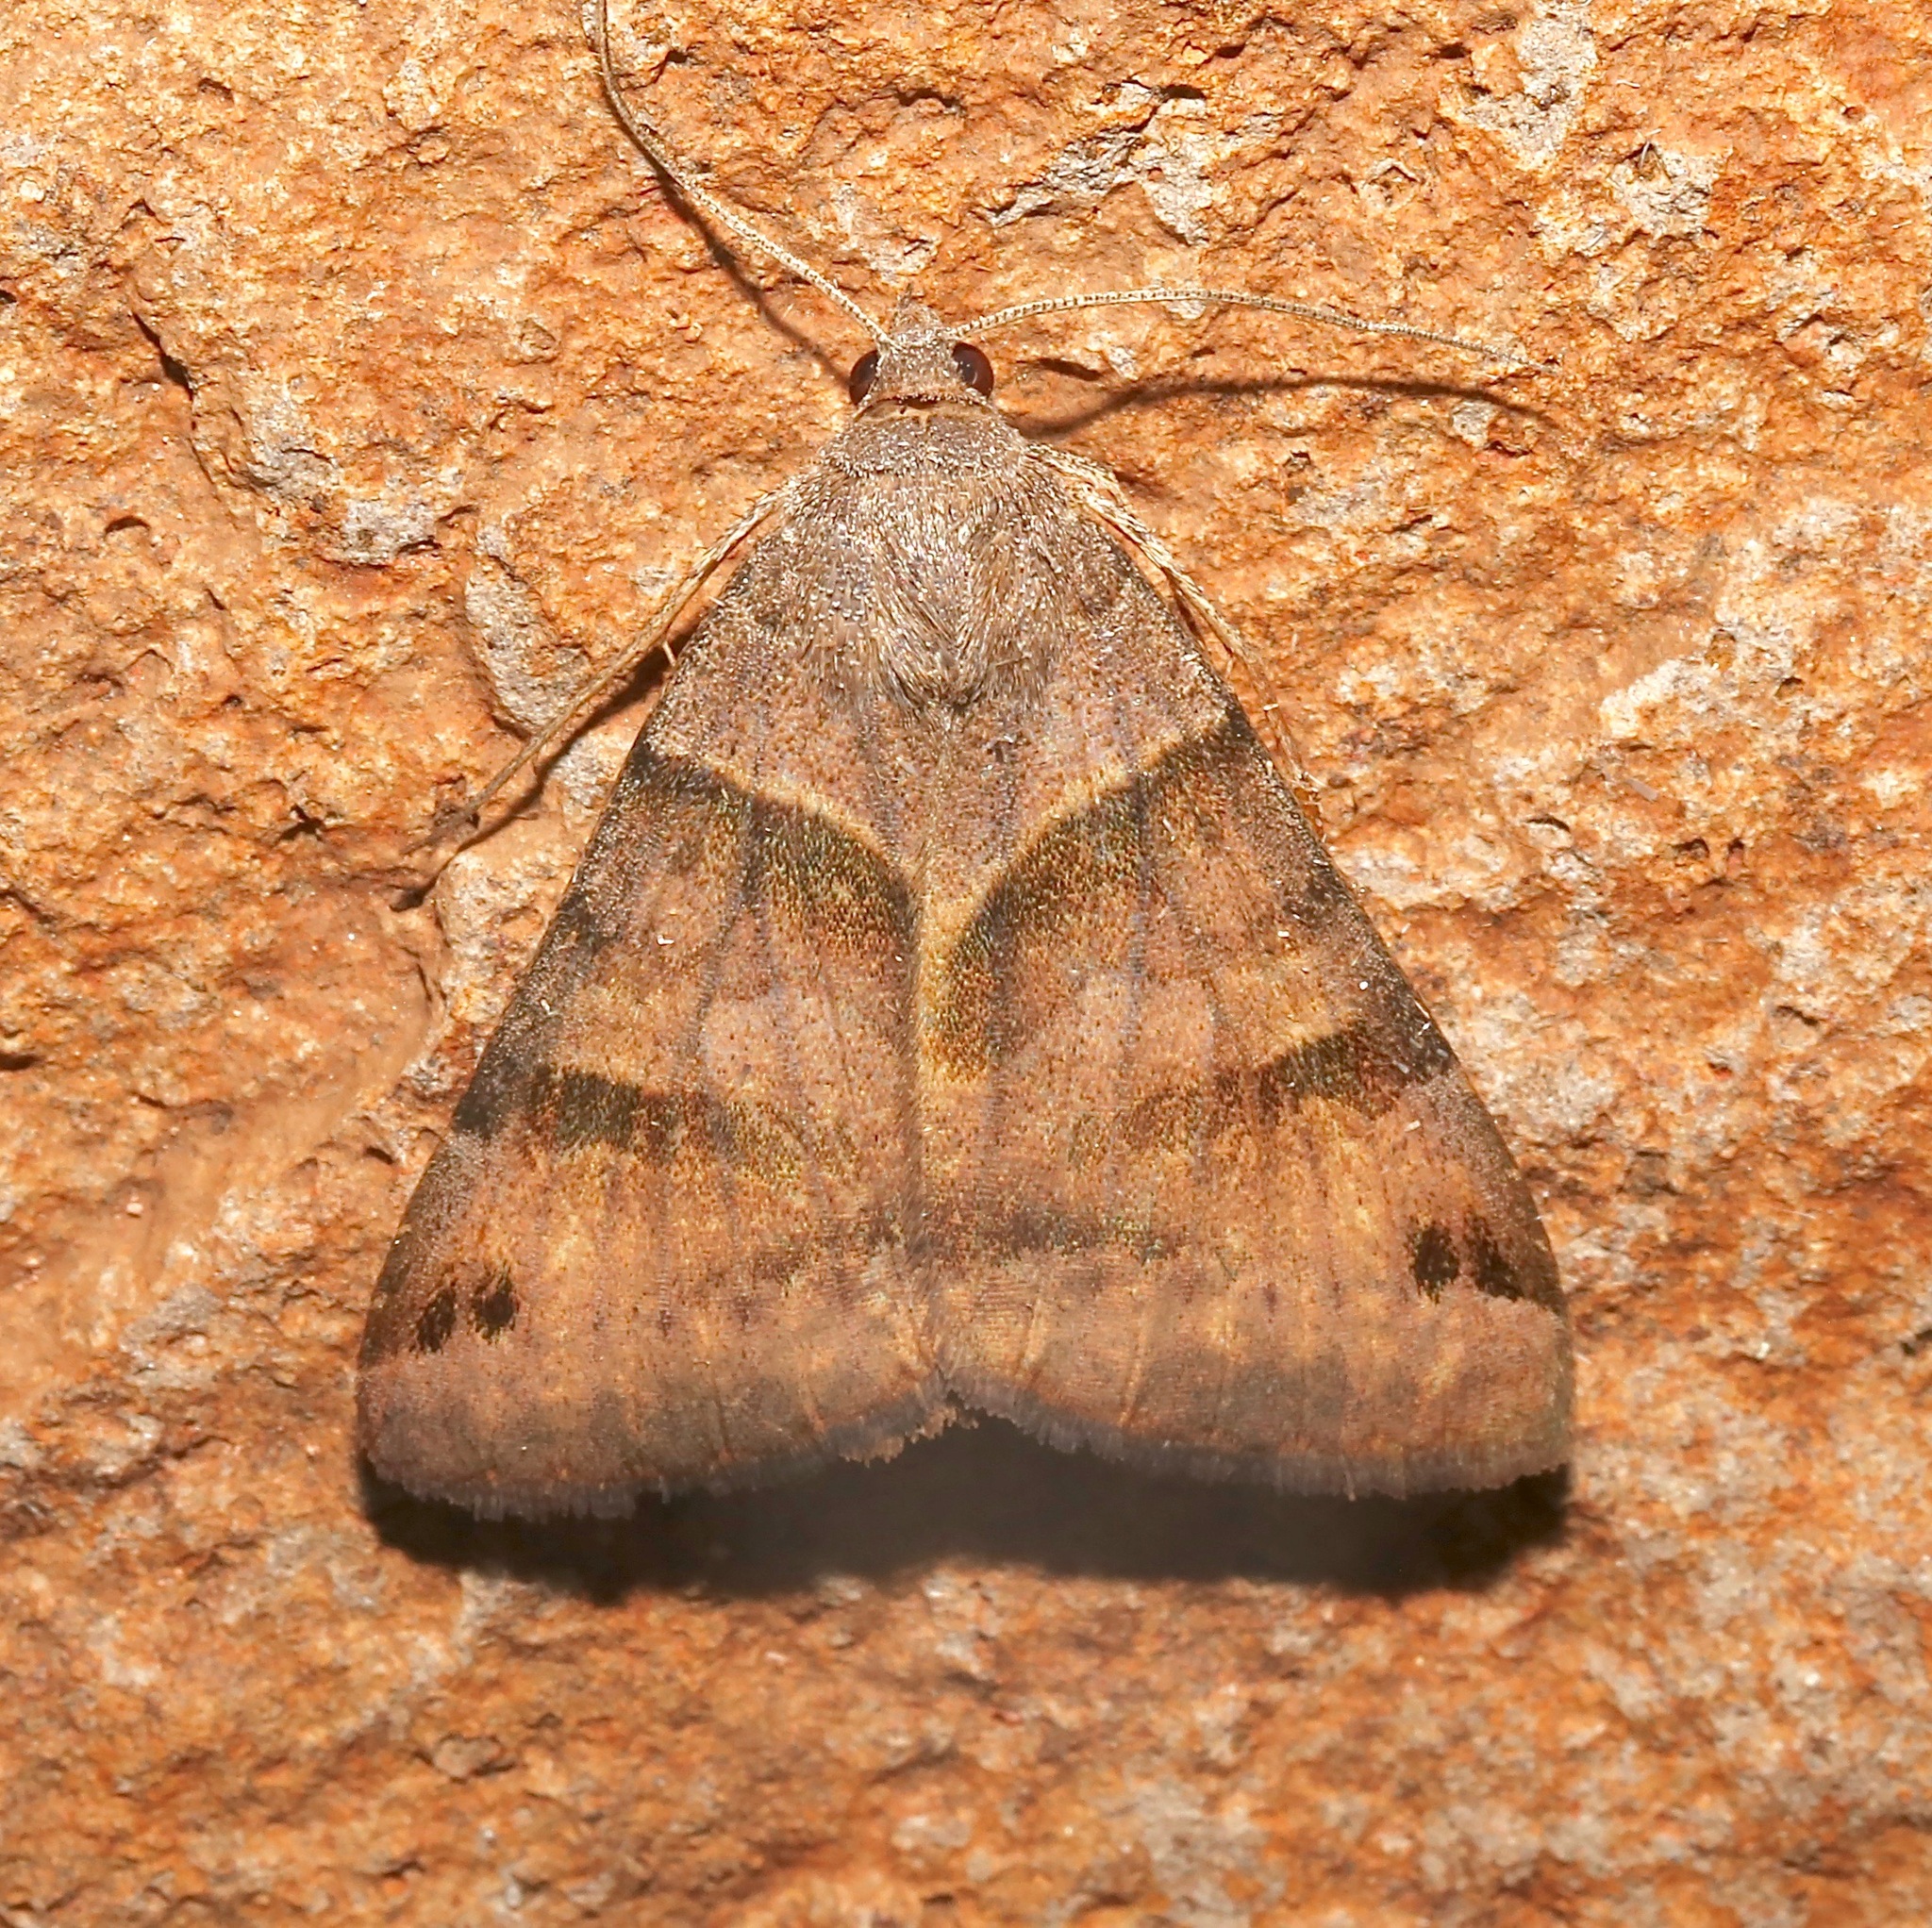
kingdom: Animalia
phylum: Arthropoda
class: Insecta
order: Lepidoptera
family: Erebidae
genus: Caenurgina
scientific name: Caenurgina erechtea
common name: Forage looper moth
